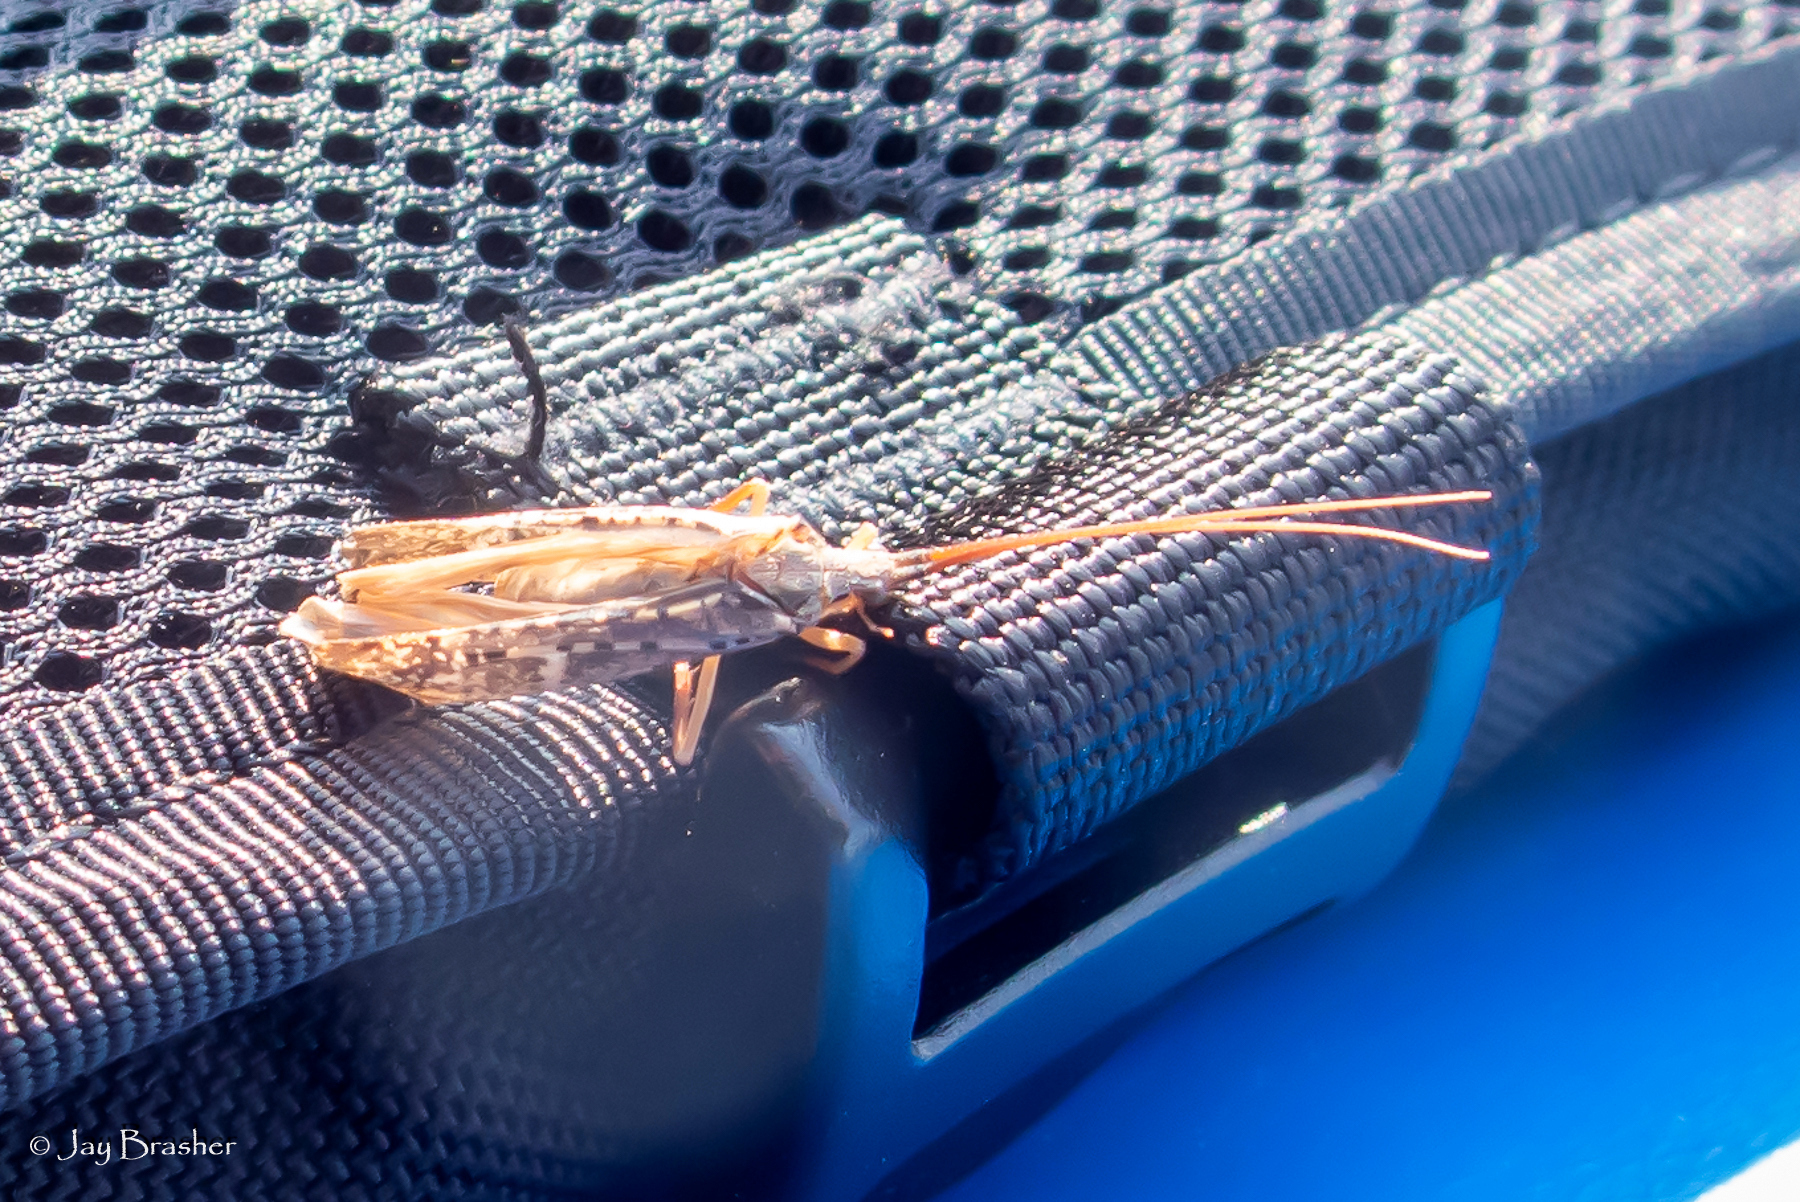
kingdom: Animalia
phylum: Arthropoda
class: Insecta
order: Trichoptera
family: Limnephilidae
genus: Nemotaulius
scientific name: Nemotaulius hostilis
